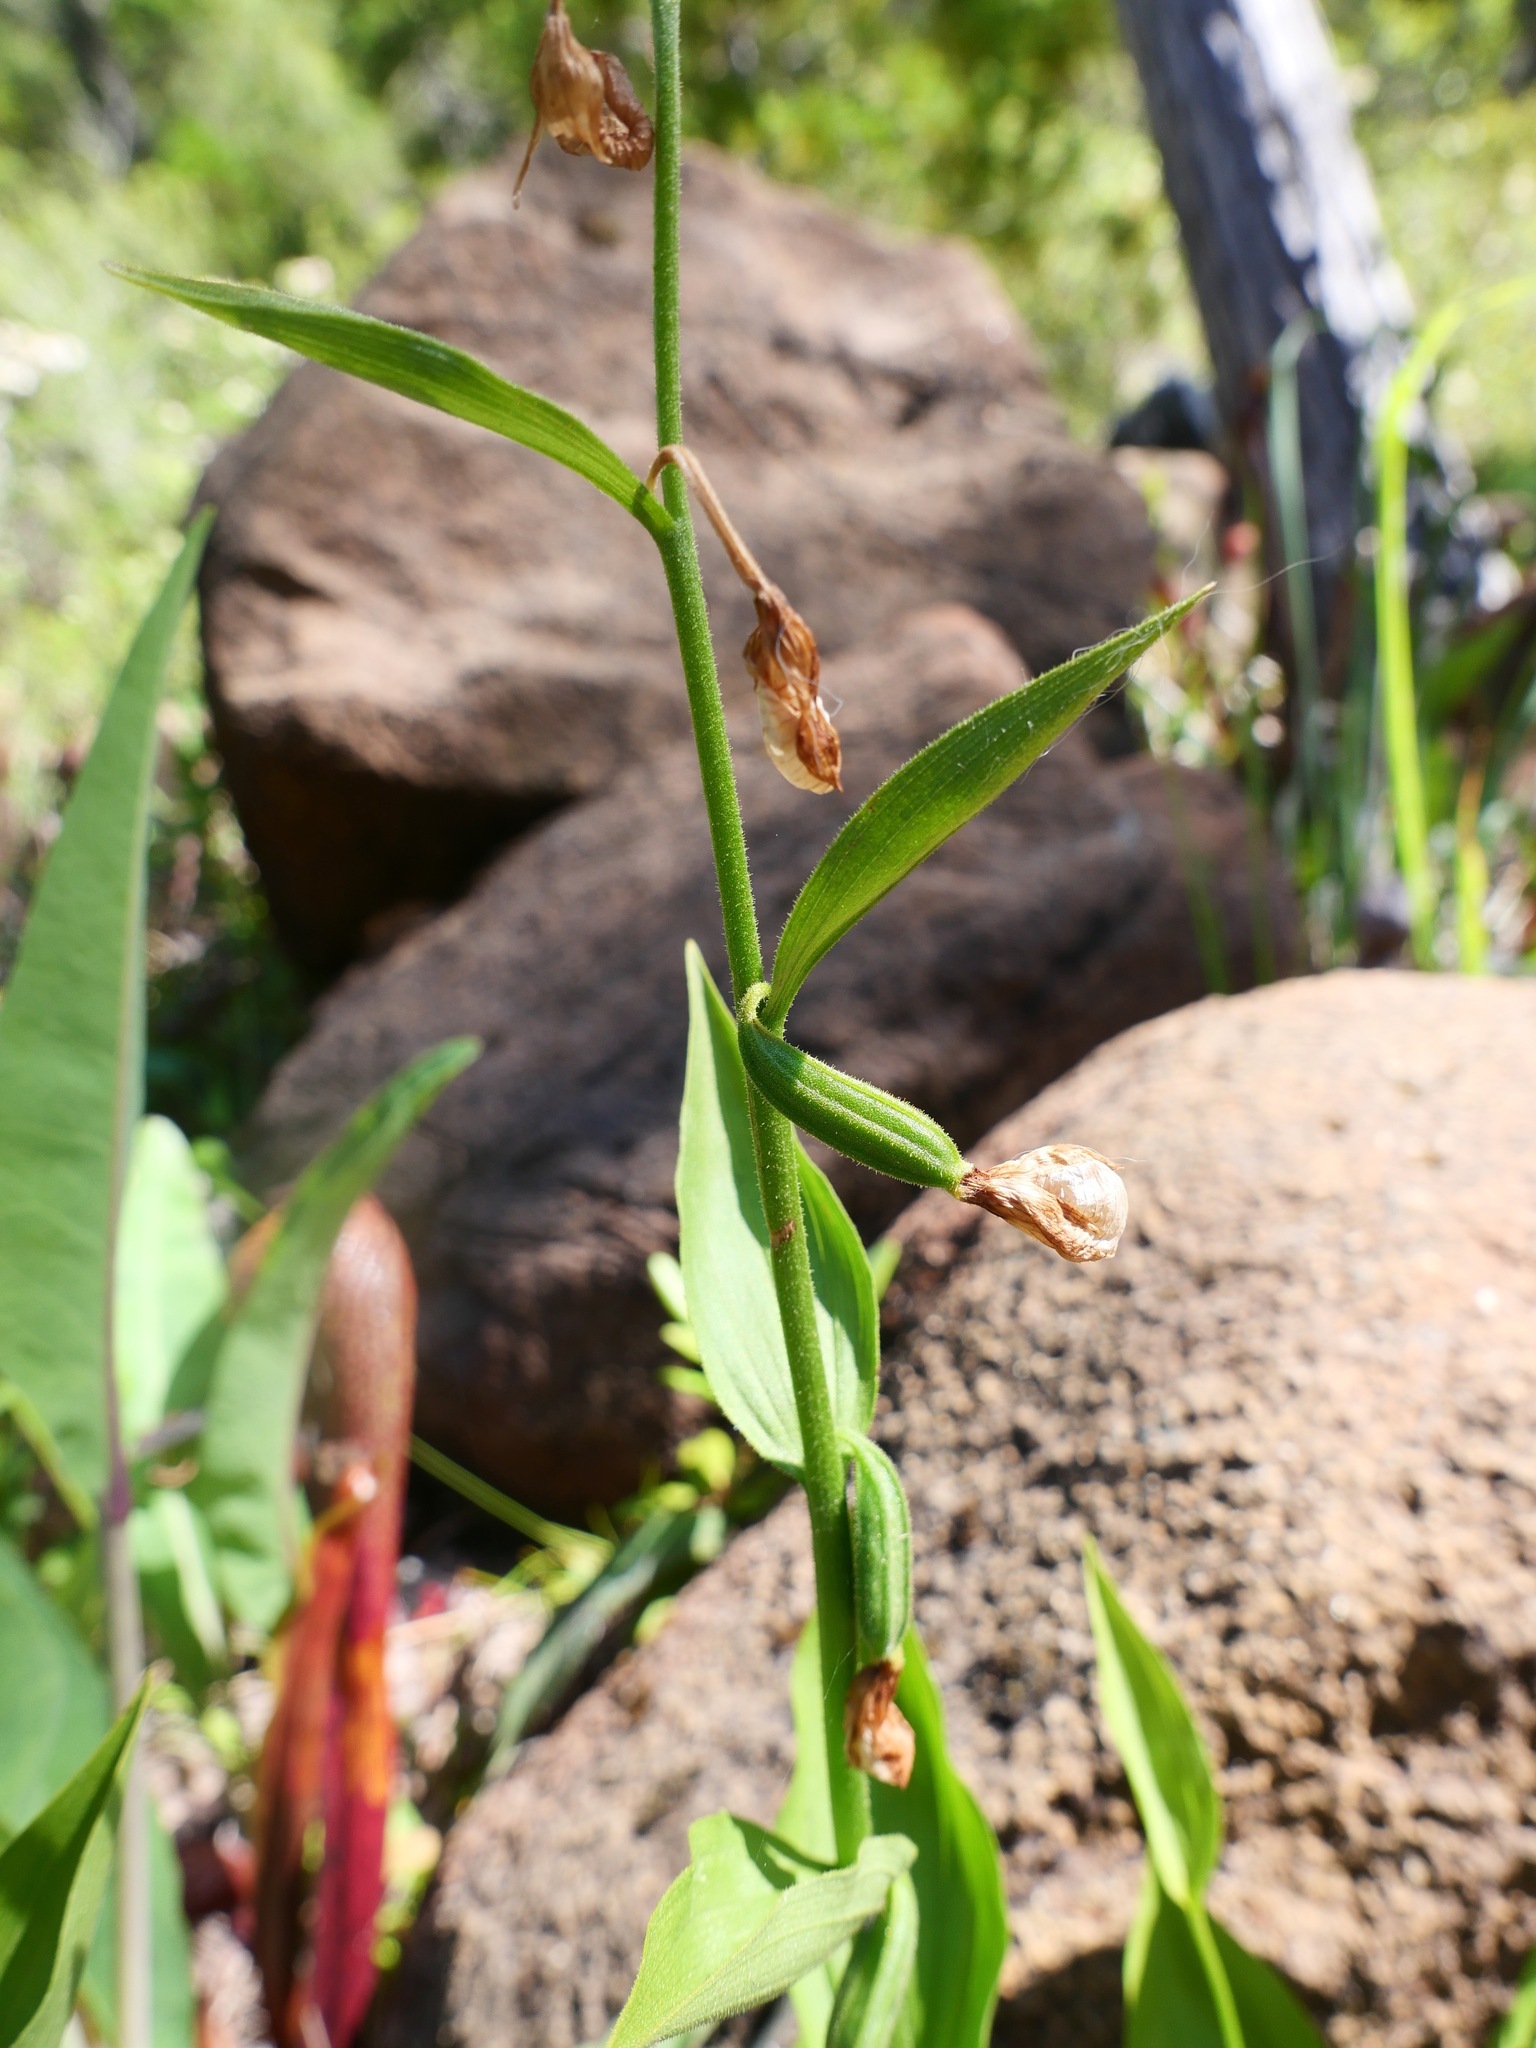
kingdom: Plantae
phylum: Tracheophyta
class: Liliopsida
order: Asparagales
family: Orchidaceae
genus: Cypripedium
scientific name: Cypripedium californicum
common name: California lady's slipper
